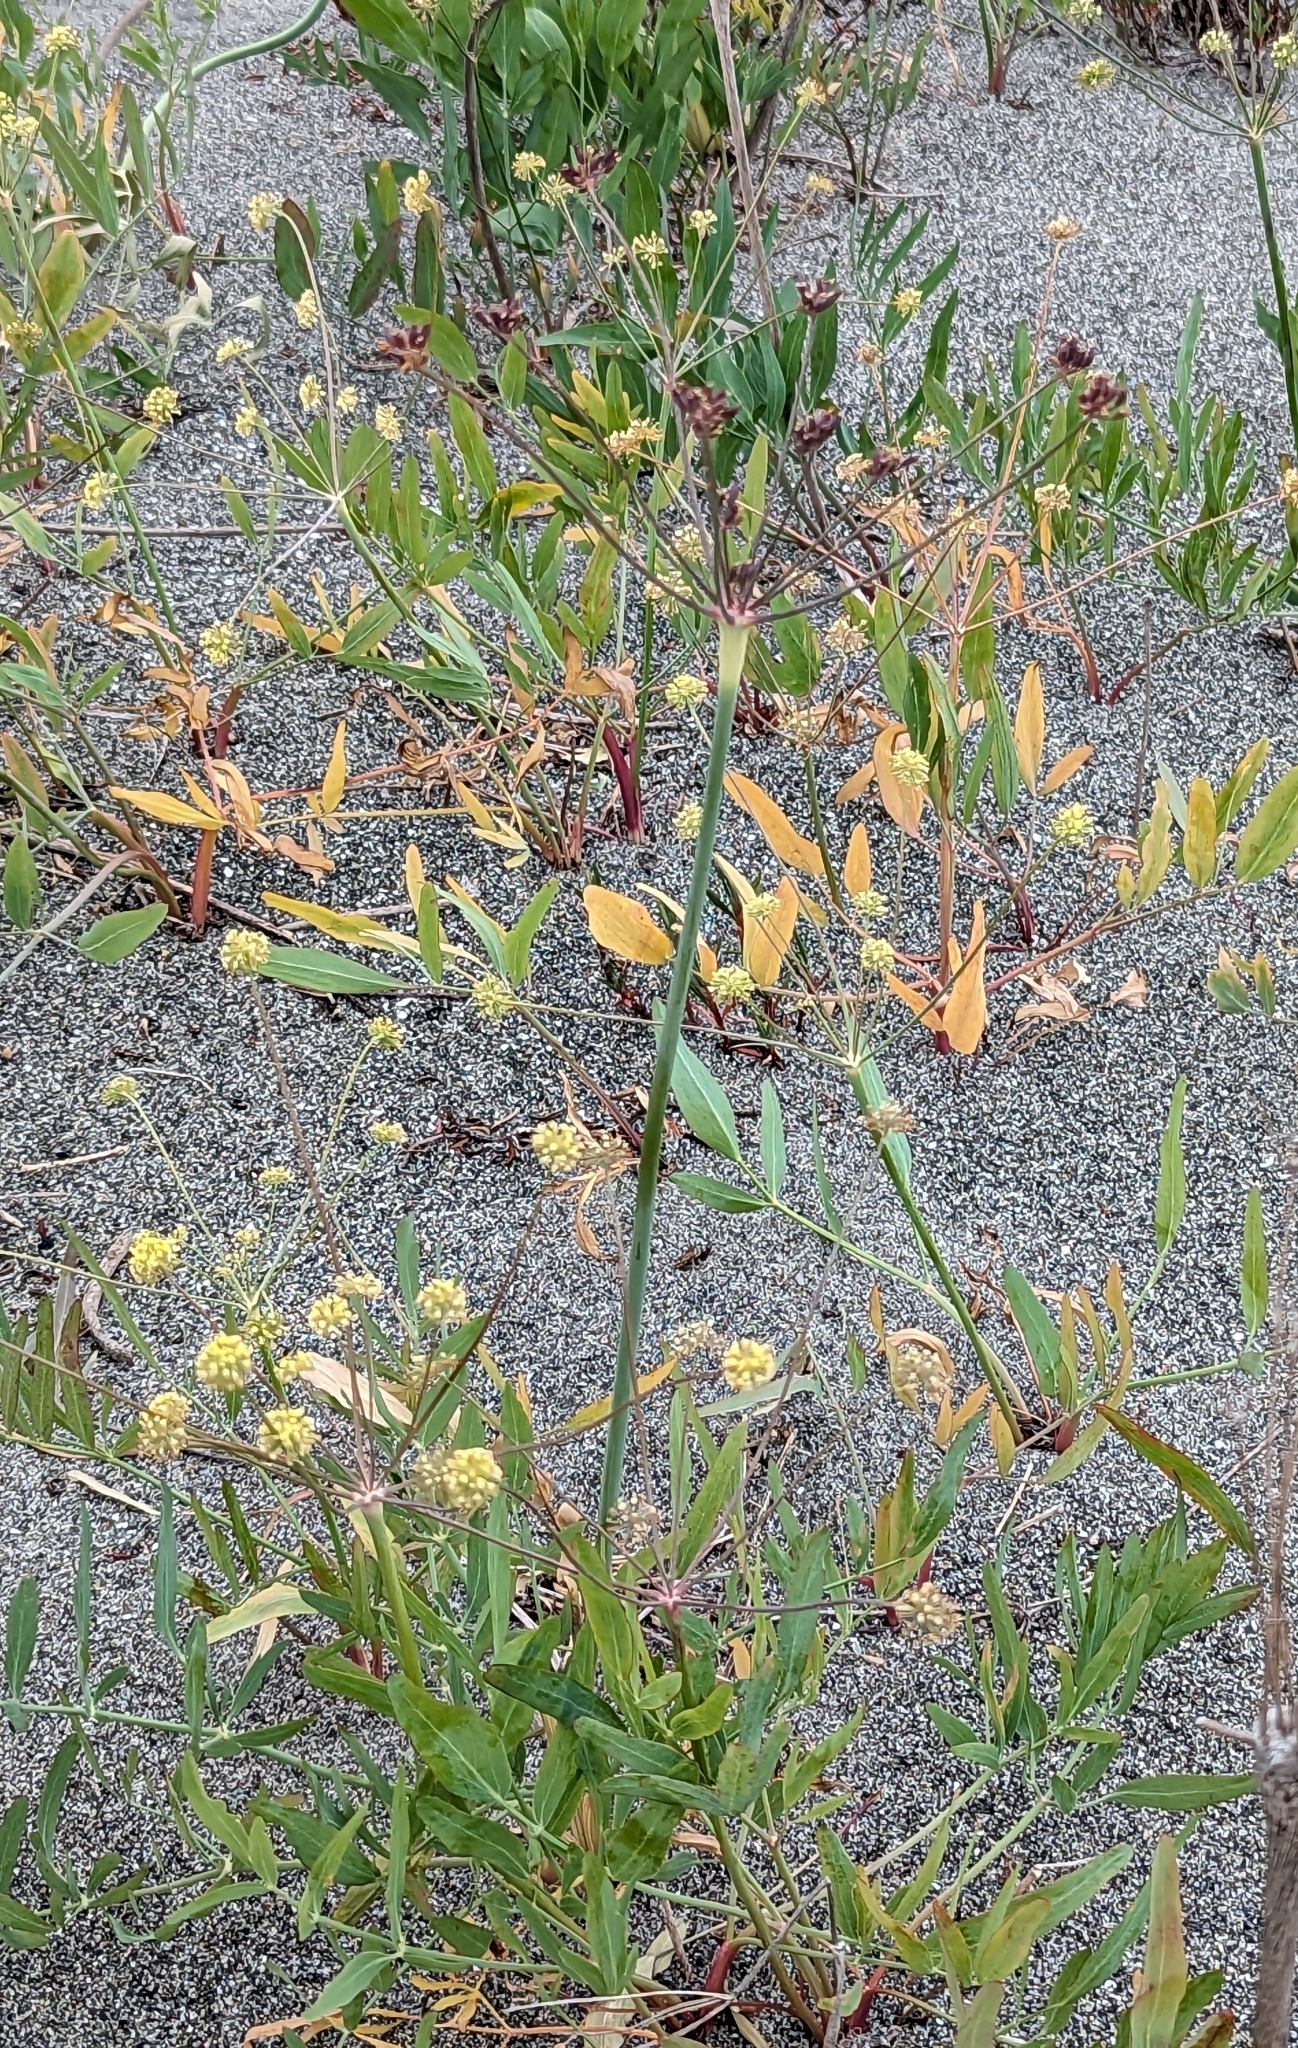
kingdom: Plantae
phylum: Tracheophyta
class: Magnoliopsida
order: Apiales
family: Apiaceae
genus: Lomatium
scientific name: Lomatium nudicaule
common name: Pestle lomatium
